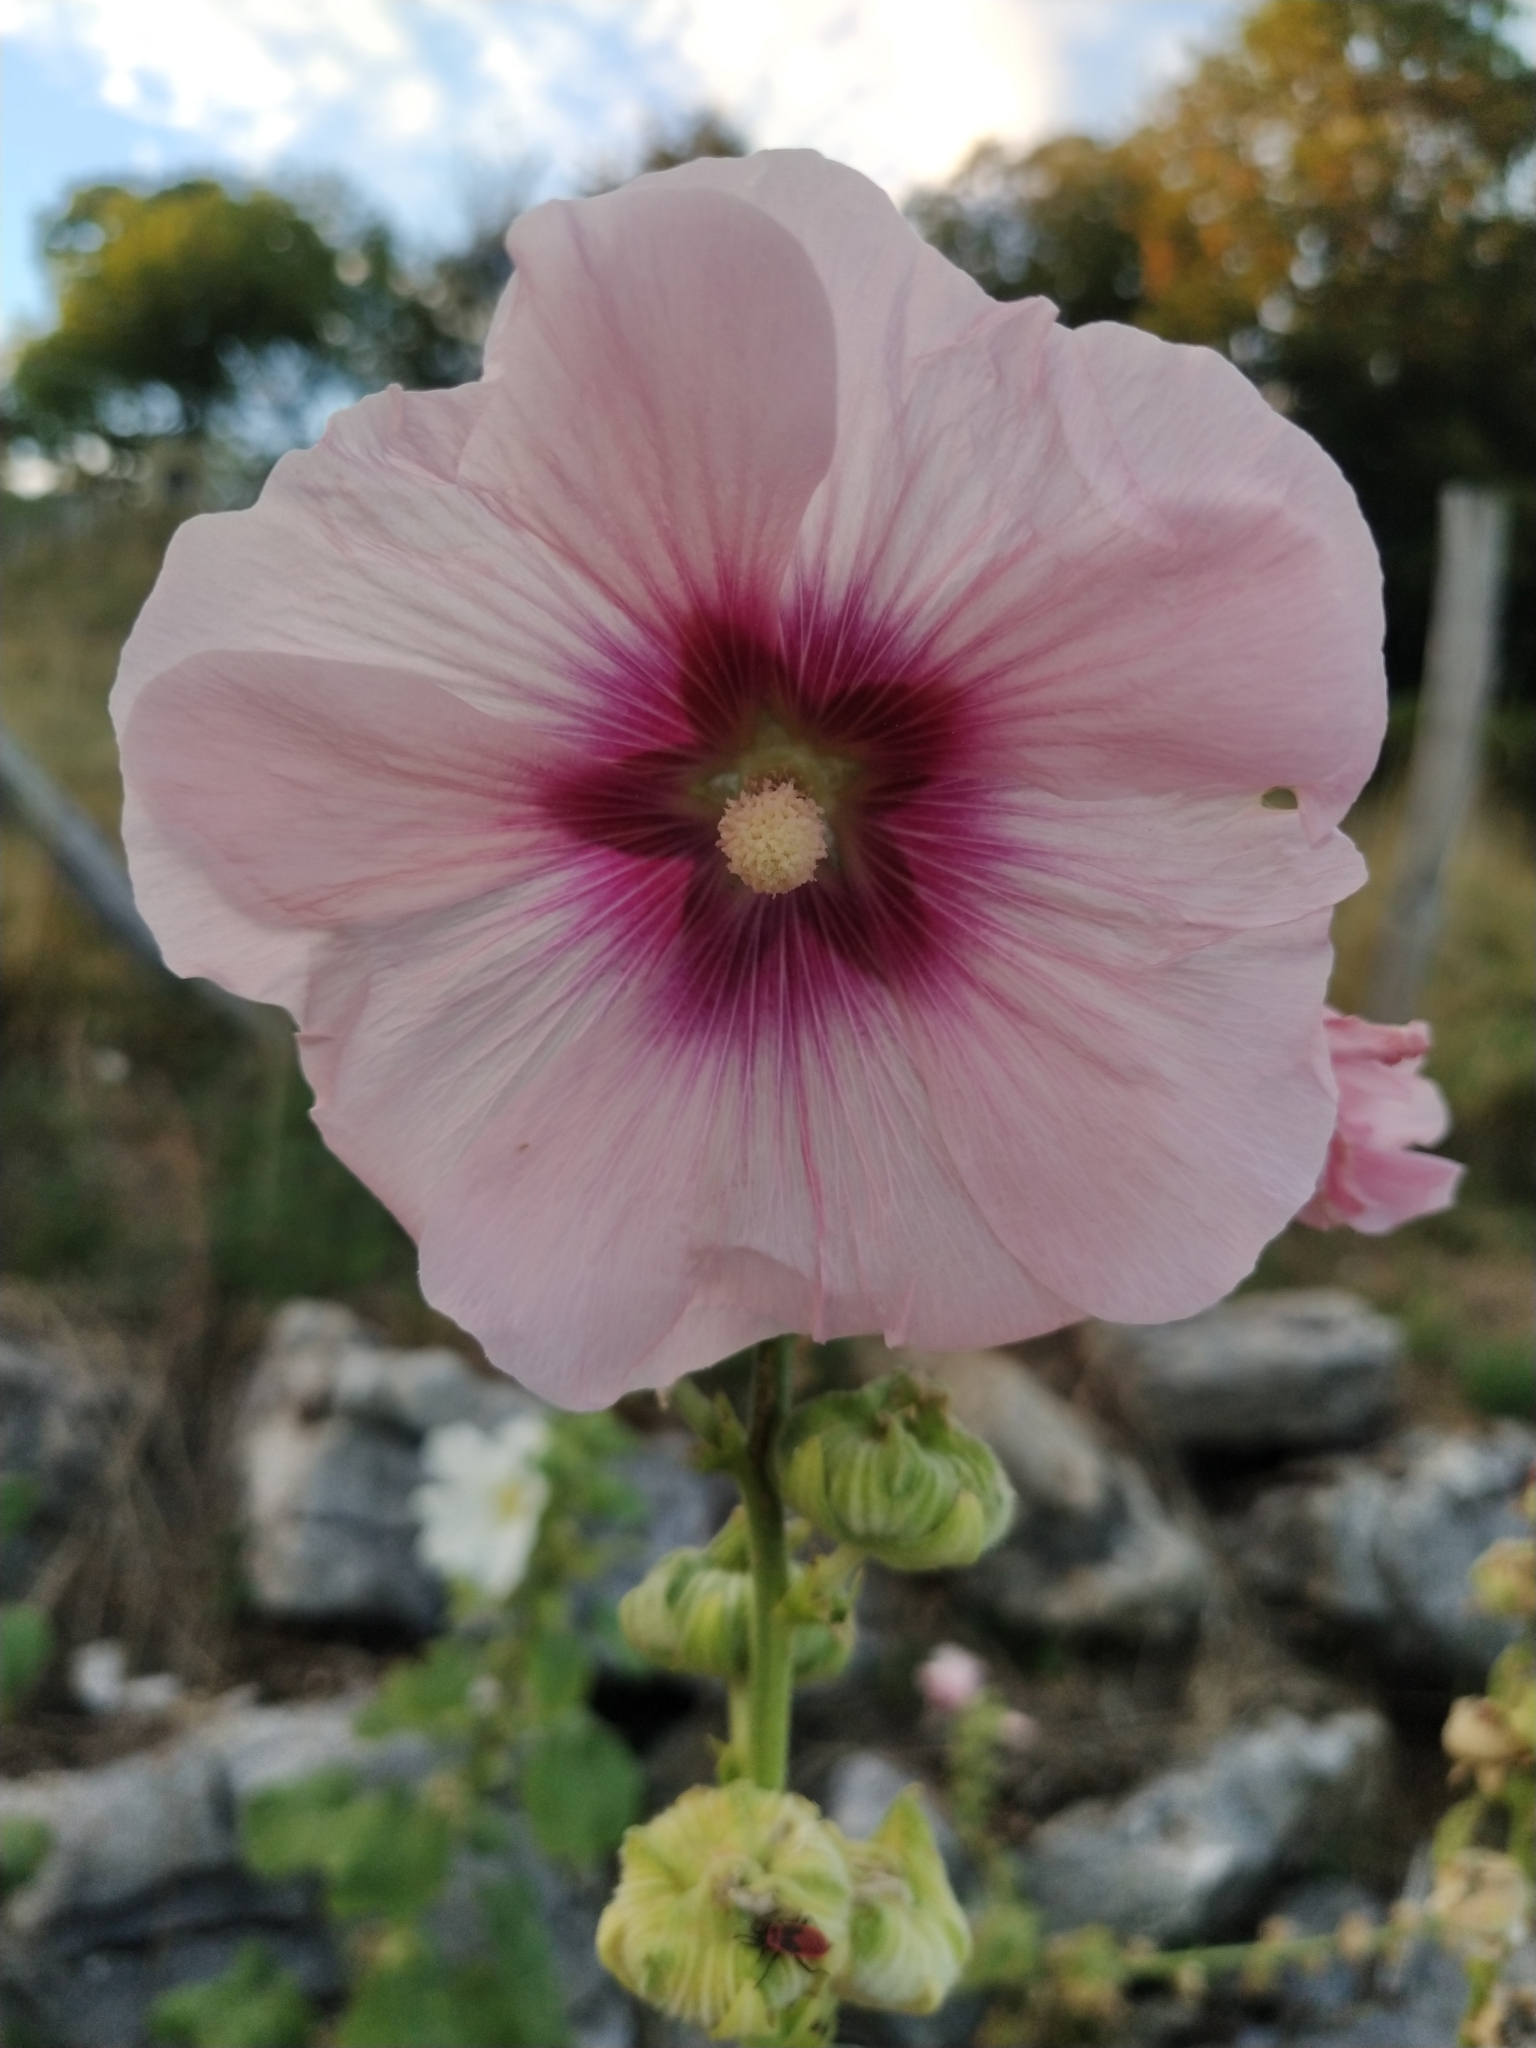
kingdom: Plantae
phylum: Tracheophyta
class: Magnoliopsida
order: Malvales
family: Malvaceae
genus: Alcea
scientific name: Alcea rosea
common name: Hollyhock
